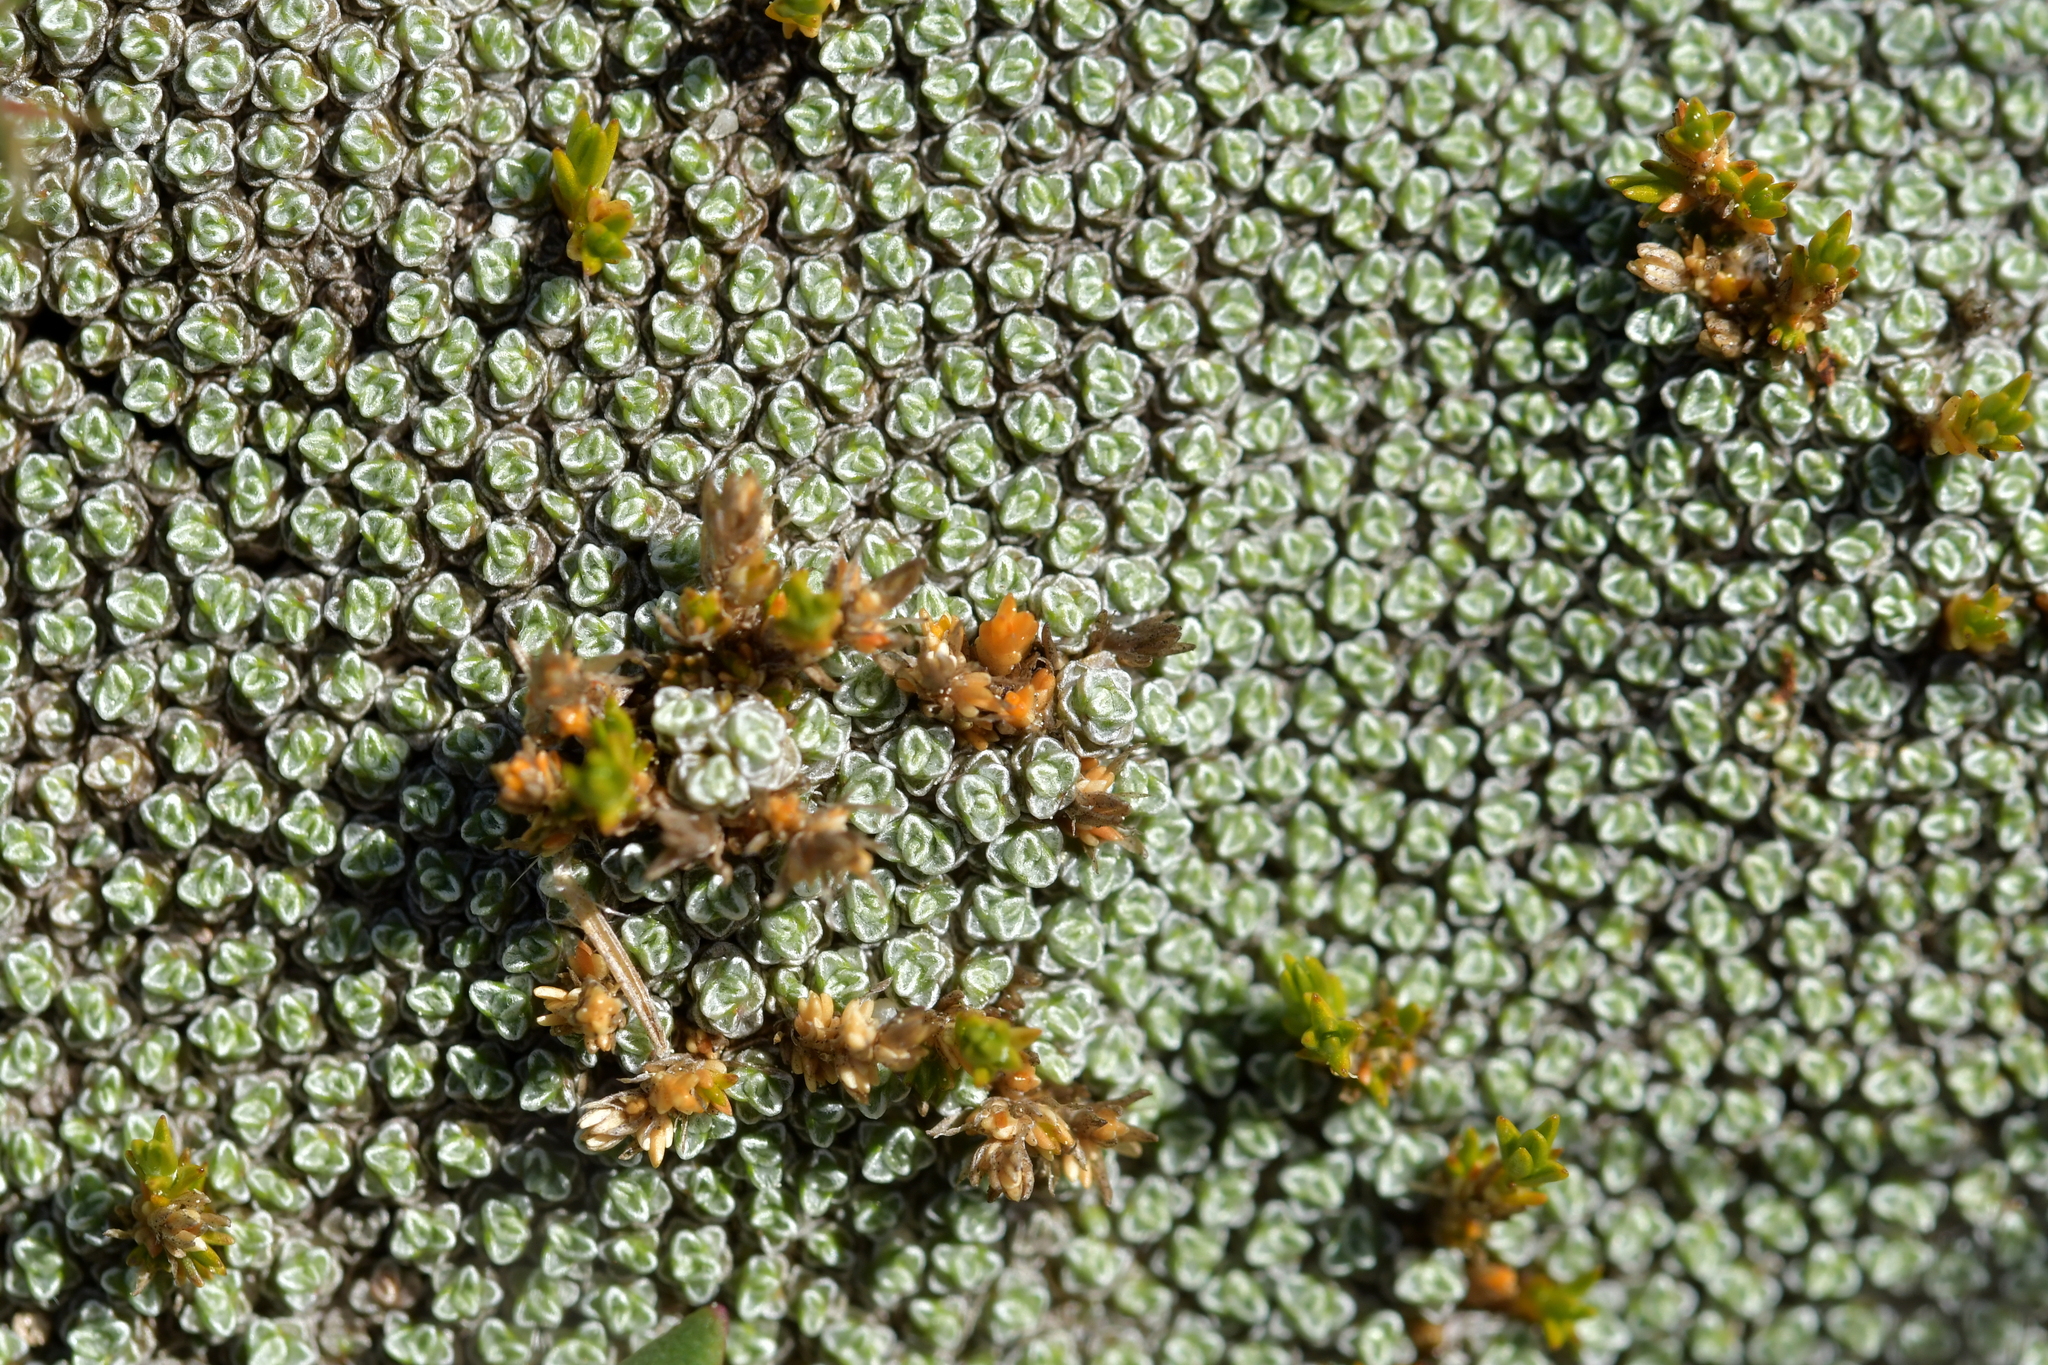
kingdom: Plantae
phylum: Tracheophyta
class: Magnoliopsida
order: Caryophyllales
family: Caryophyllaceae
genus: Stellaria
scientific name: Stellaria gracilenta
